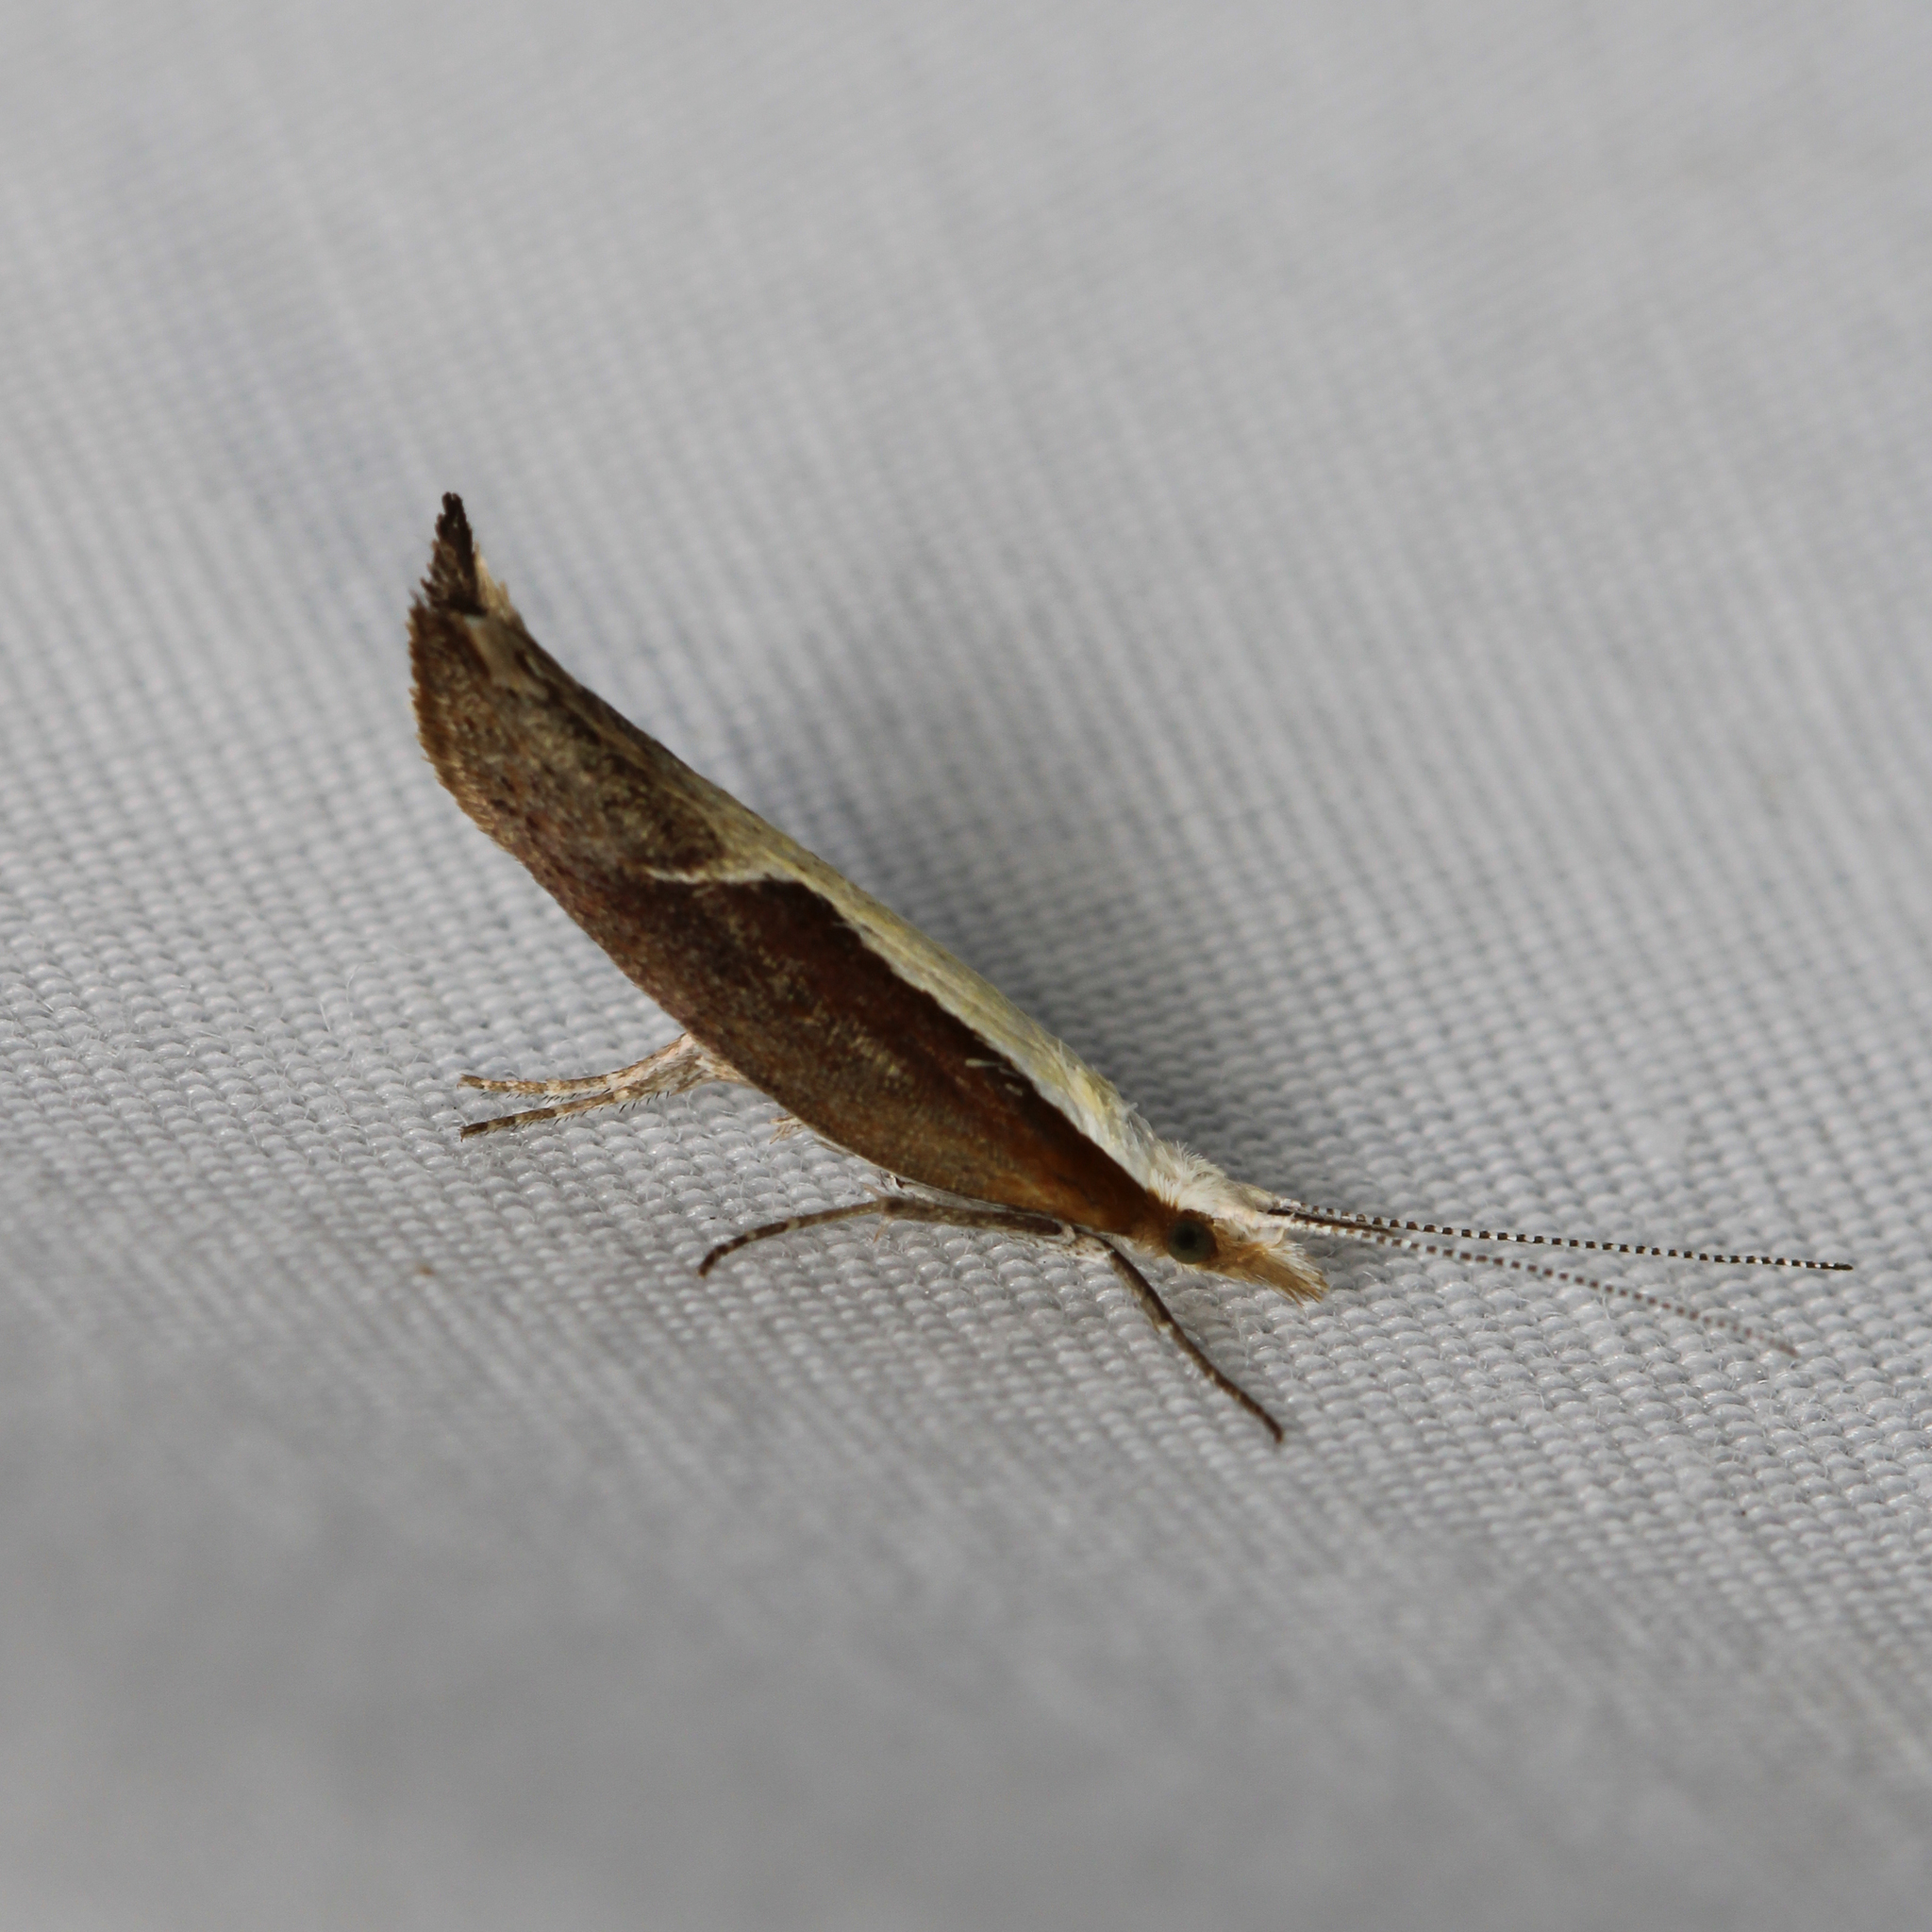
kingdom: Animalia
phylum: Arthropoda
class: Insecta
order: Lepidoptera
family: Ypsolophidae
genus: Ypsolopha
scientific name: Ypsolopha dentella
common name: Honeysuckle moth
